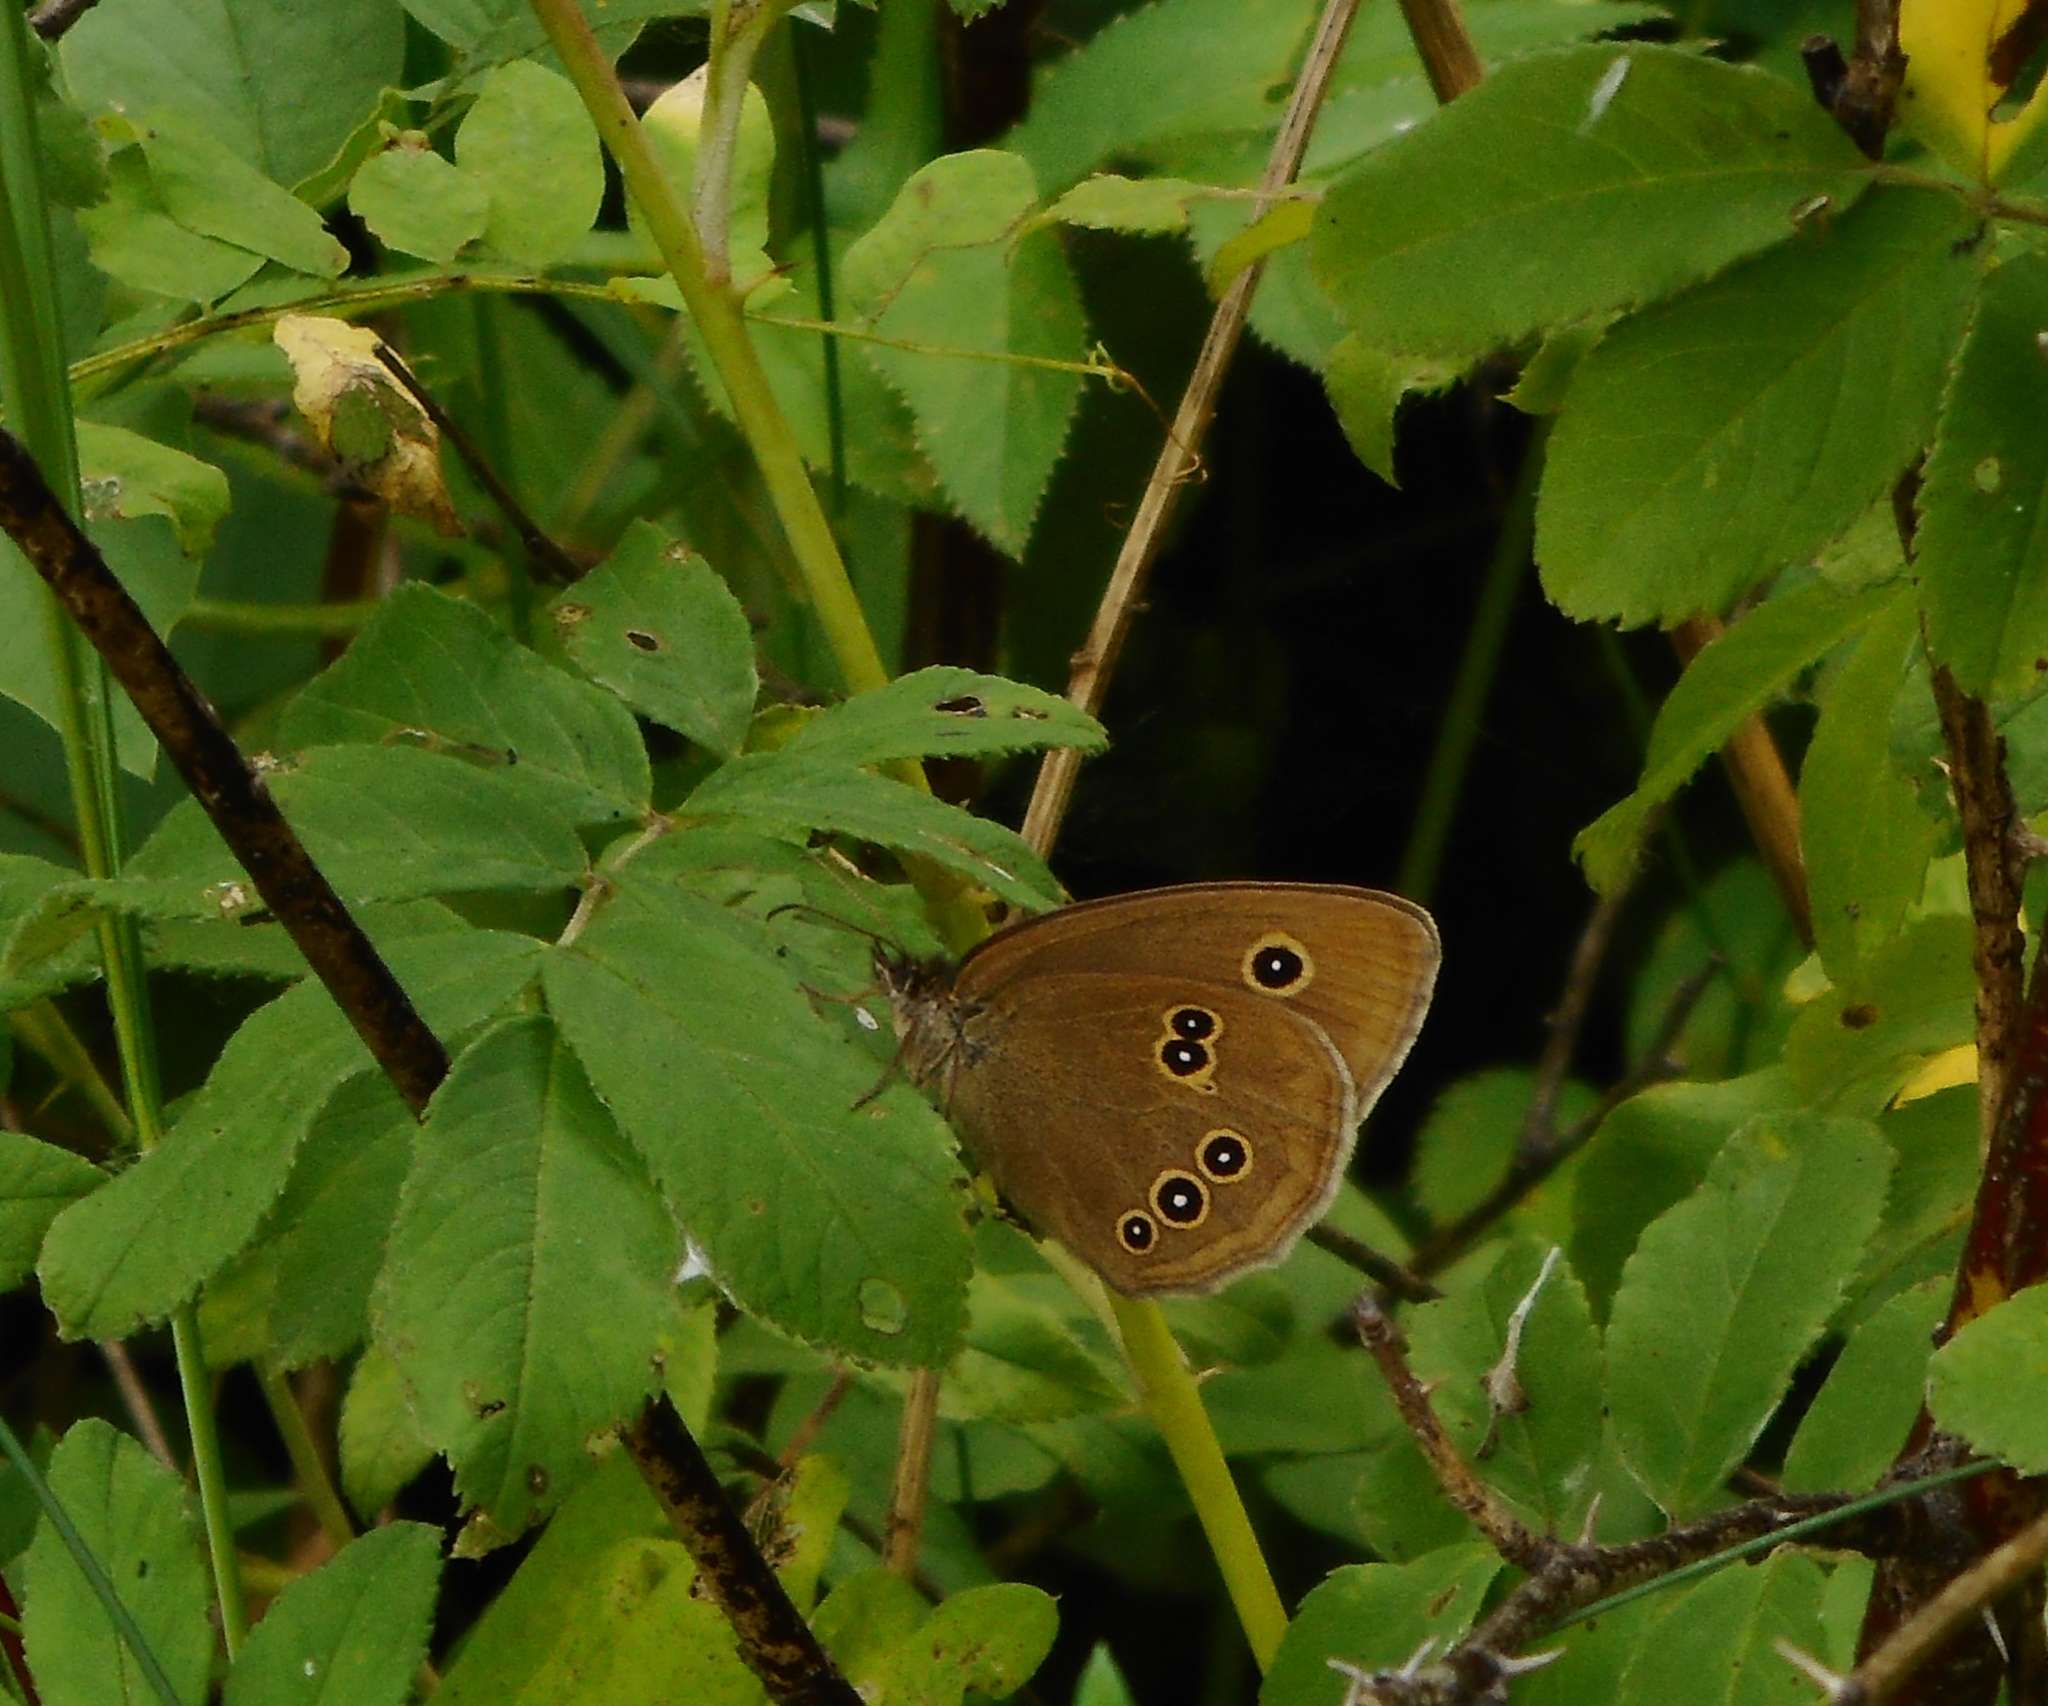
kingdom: Animalia
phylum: Arthropoda
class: Insecta
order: Lepidoptera
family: Nymphalidae
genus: Aphantopus
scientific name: Aphantopus hyperantus
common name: Ringlet
